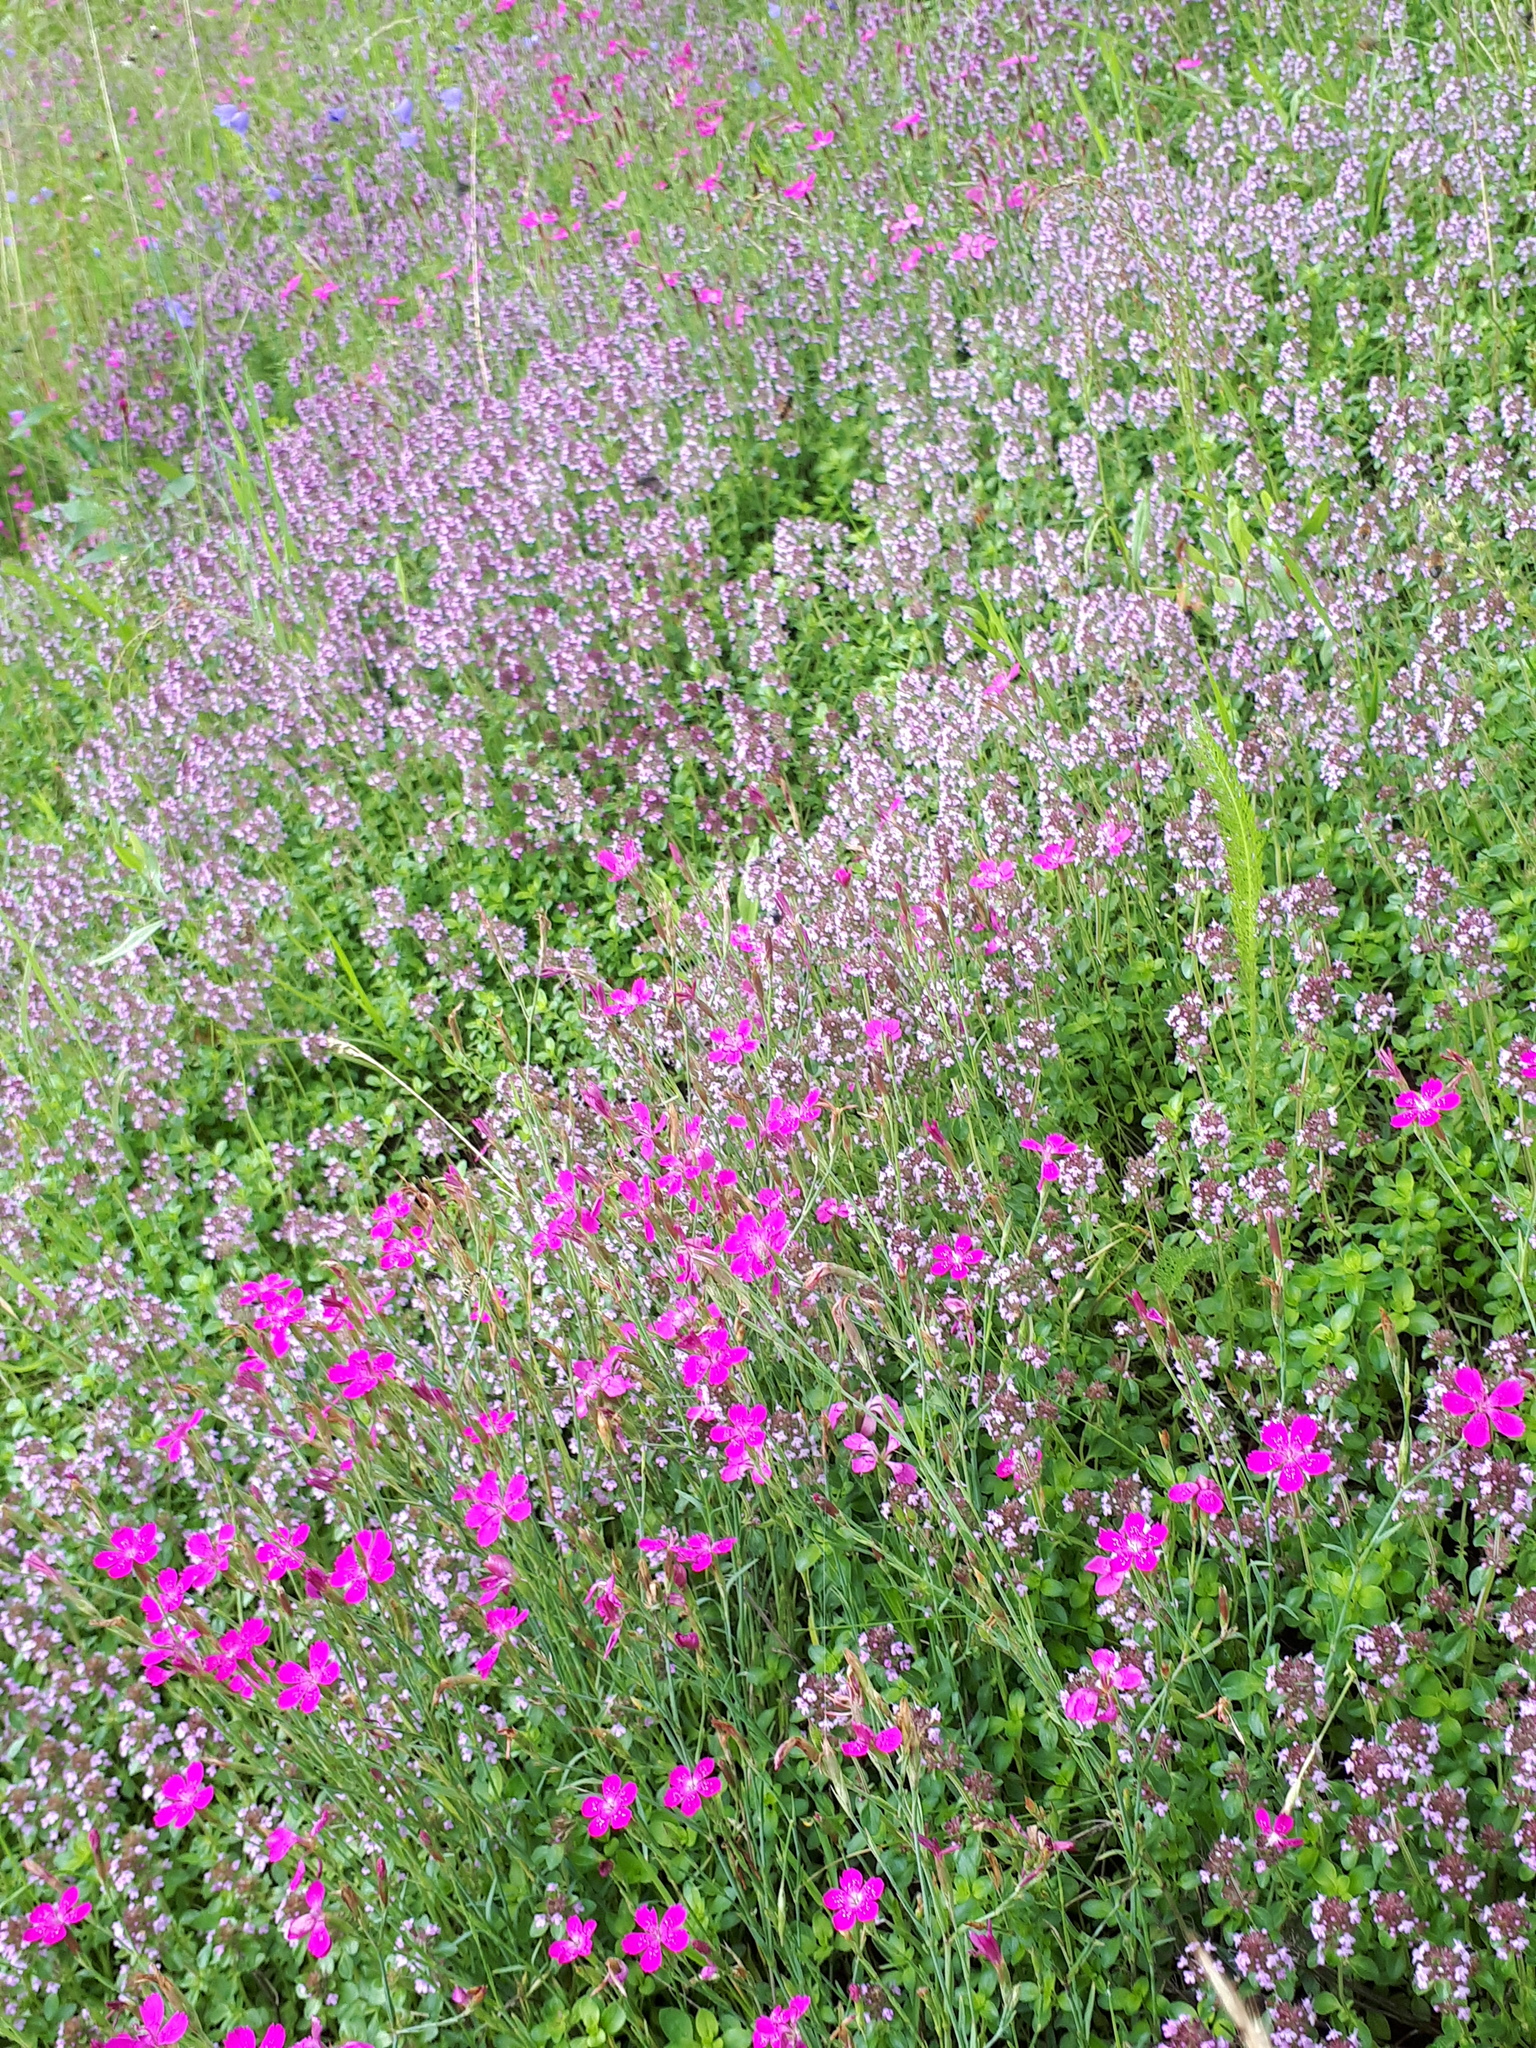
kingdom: Plantae
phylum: Tracheophyta
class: Magnoliopsida
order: Caryophyllales
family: Caryophyllaceae
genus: Dianthus
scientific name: Dianthus deltoides
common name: Maiden pink
